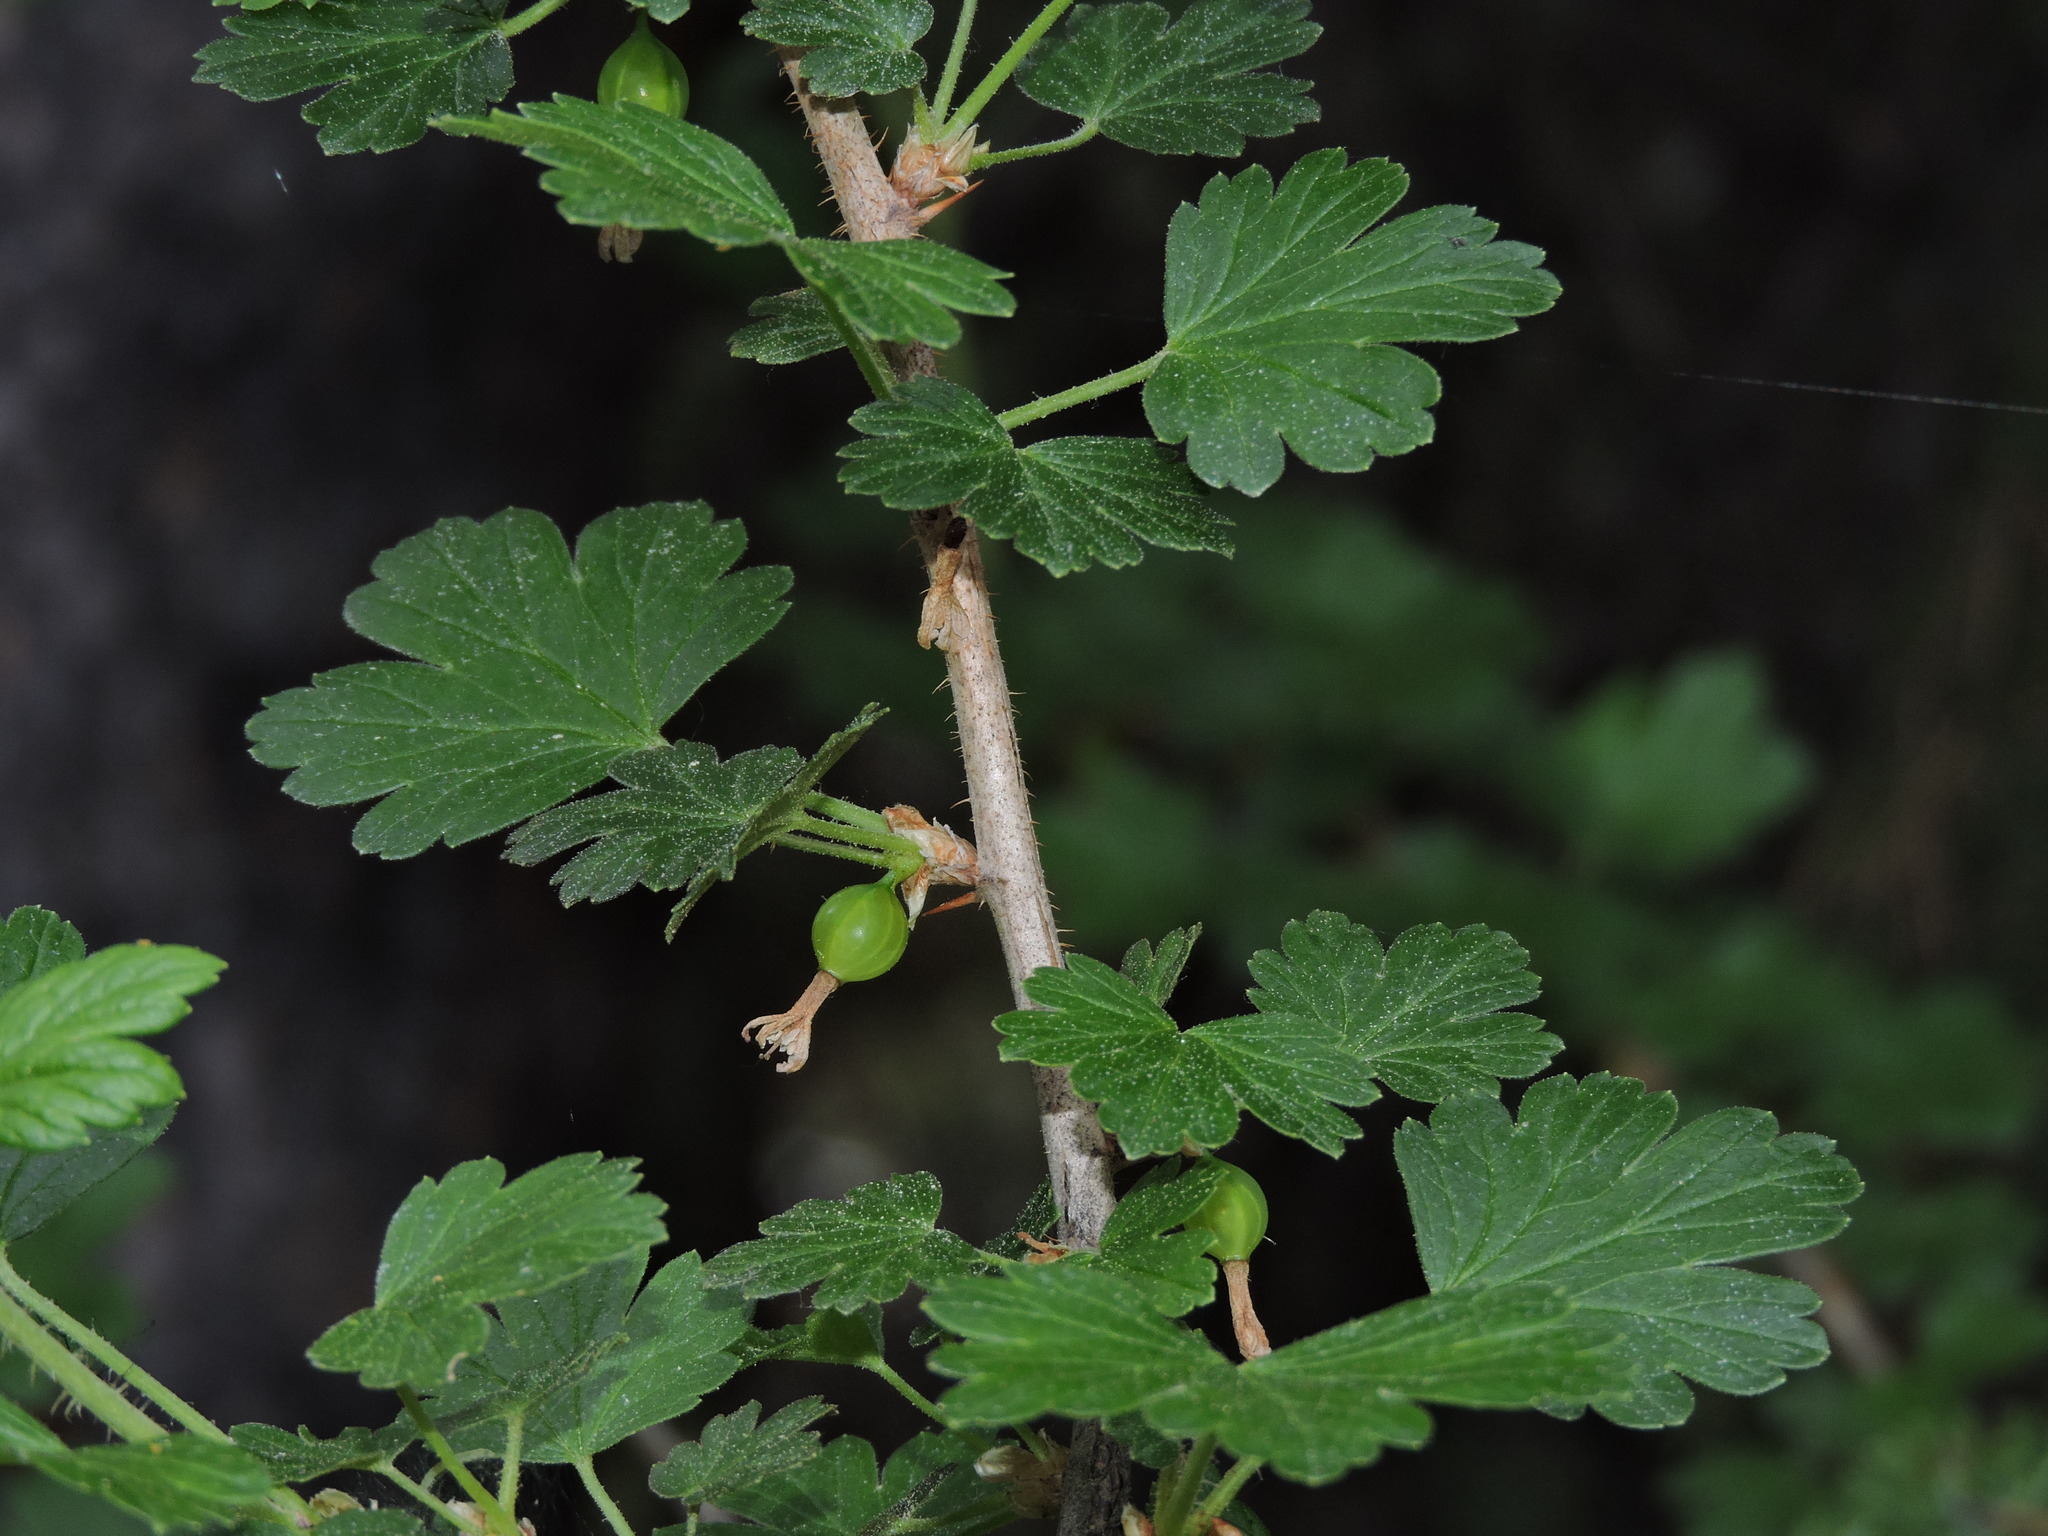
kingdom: Plantae
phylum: Tracheophyta
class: Magnoliopsida
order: Saxifragales
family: Grossulariaceae
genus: Ribes
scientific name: Ribes oxyacanthoides
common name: Northern gooseberry
